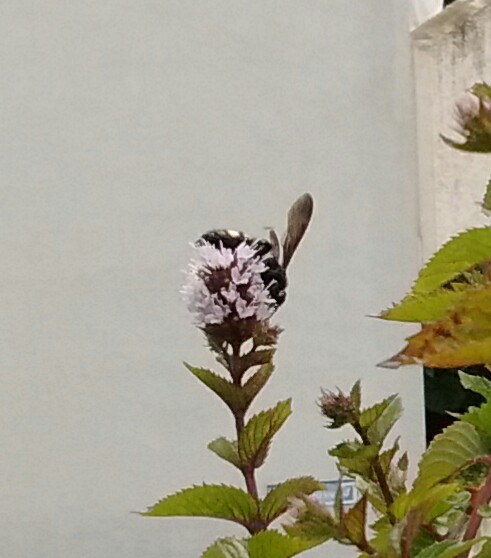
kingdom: Animalia
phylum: Arthropoda
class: Insecta
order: Hymenoptera
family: Scoliidae
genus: Scolia
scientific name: Scolia hirta
